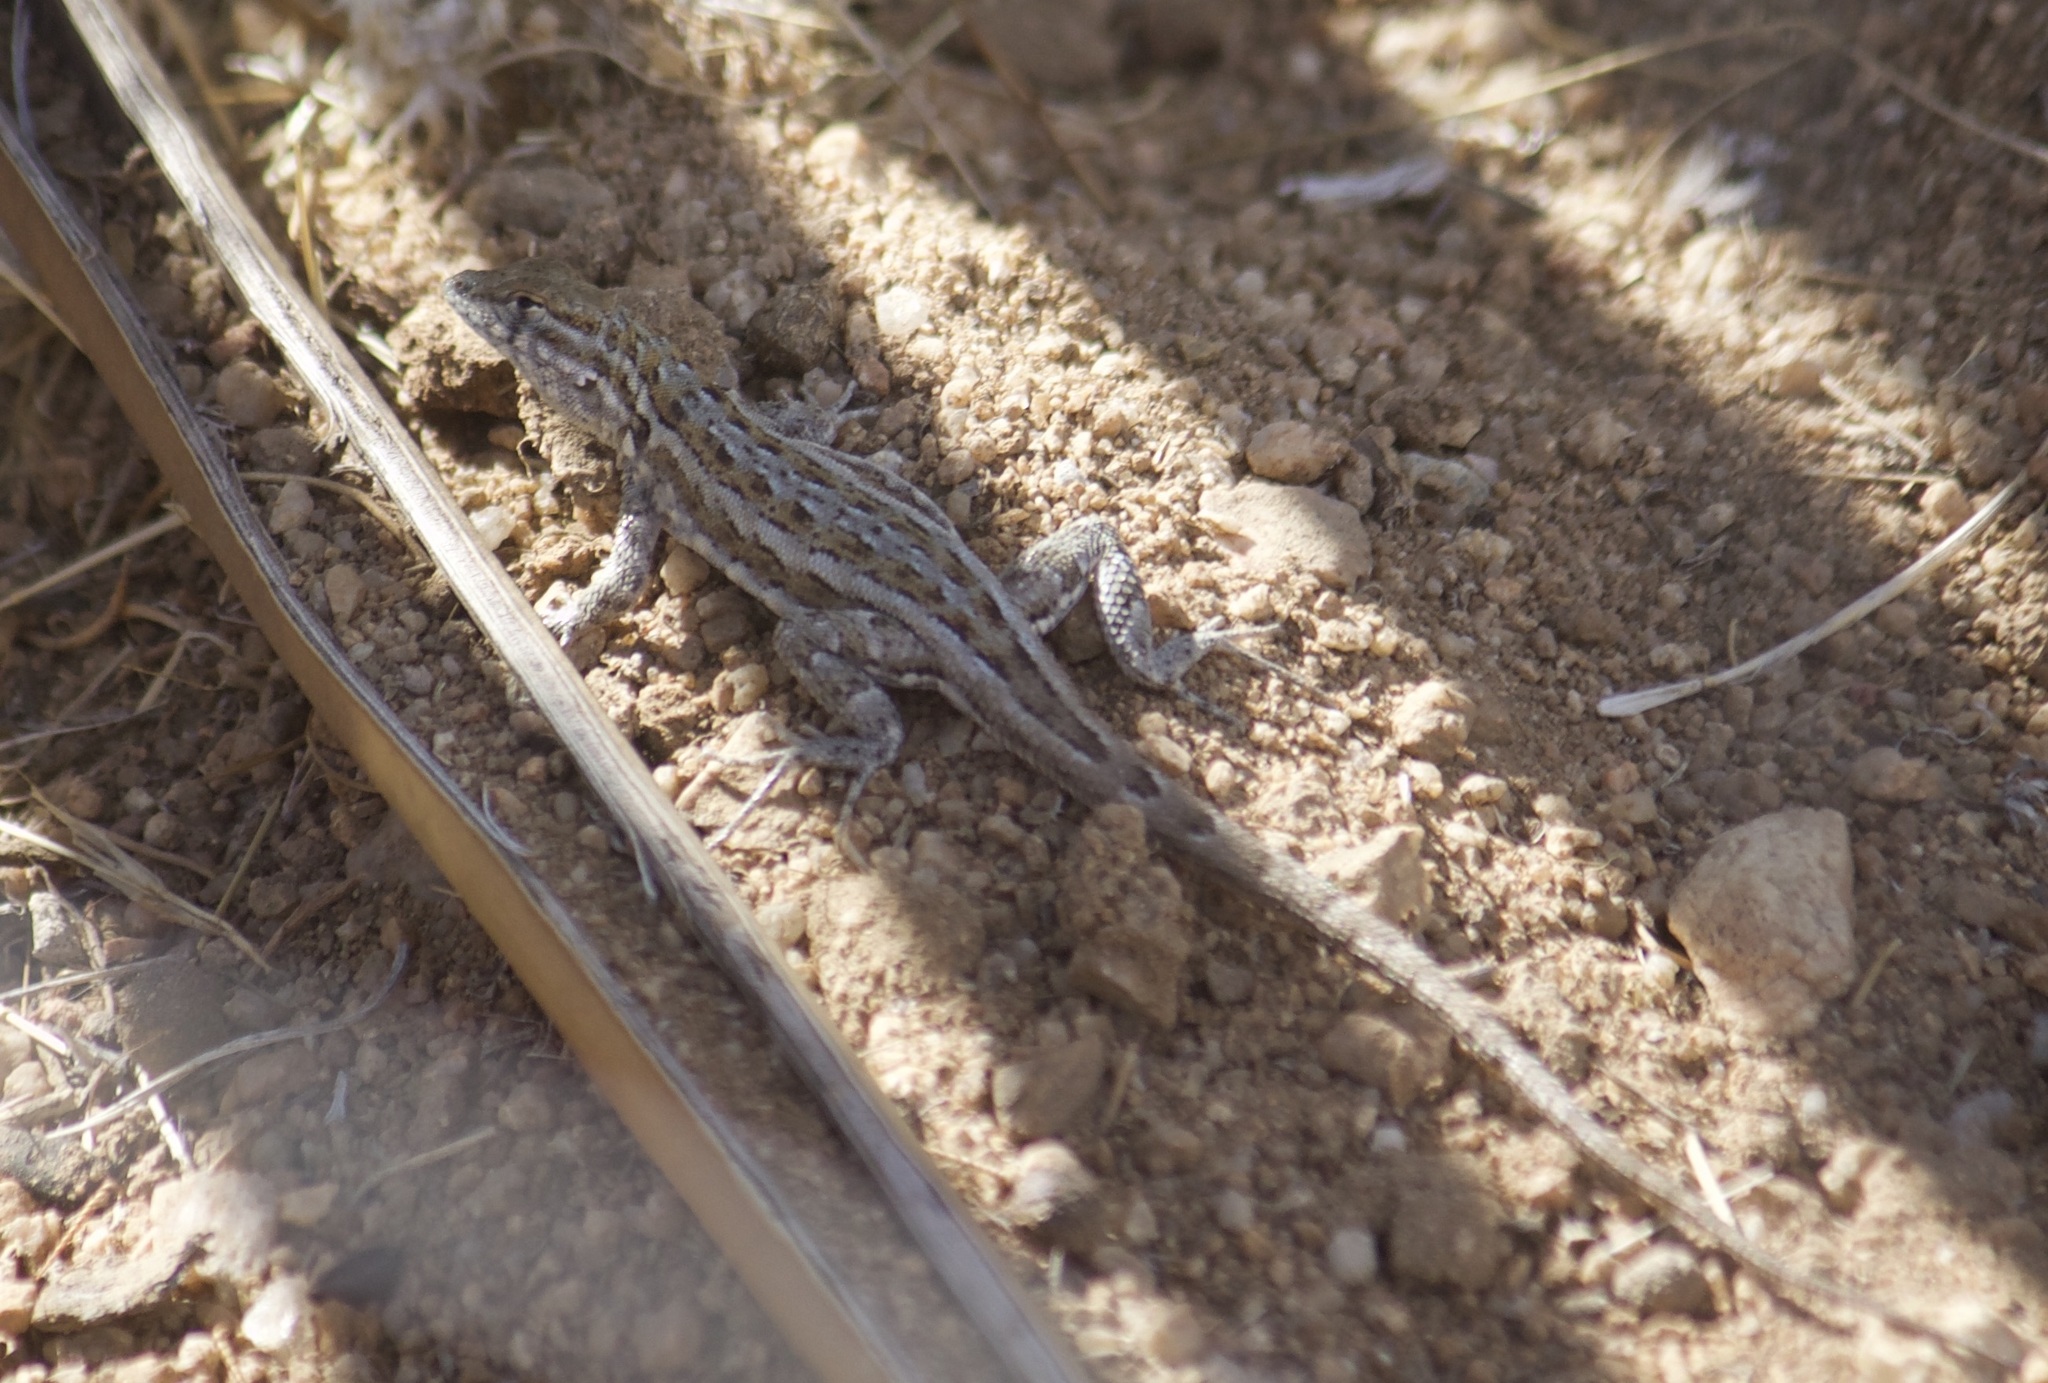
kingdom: Animalia
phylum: Chordata
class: Squamata
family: Phrynosomatidae
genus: Uta
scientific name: Uta stansburiana
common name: Side-blotched lizard
